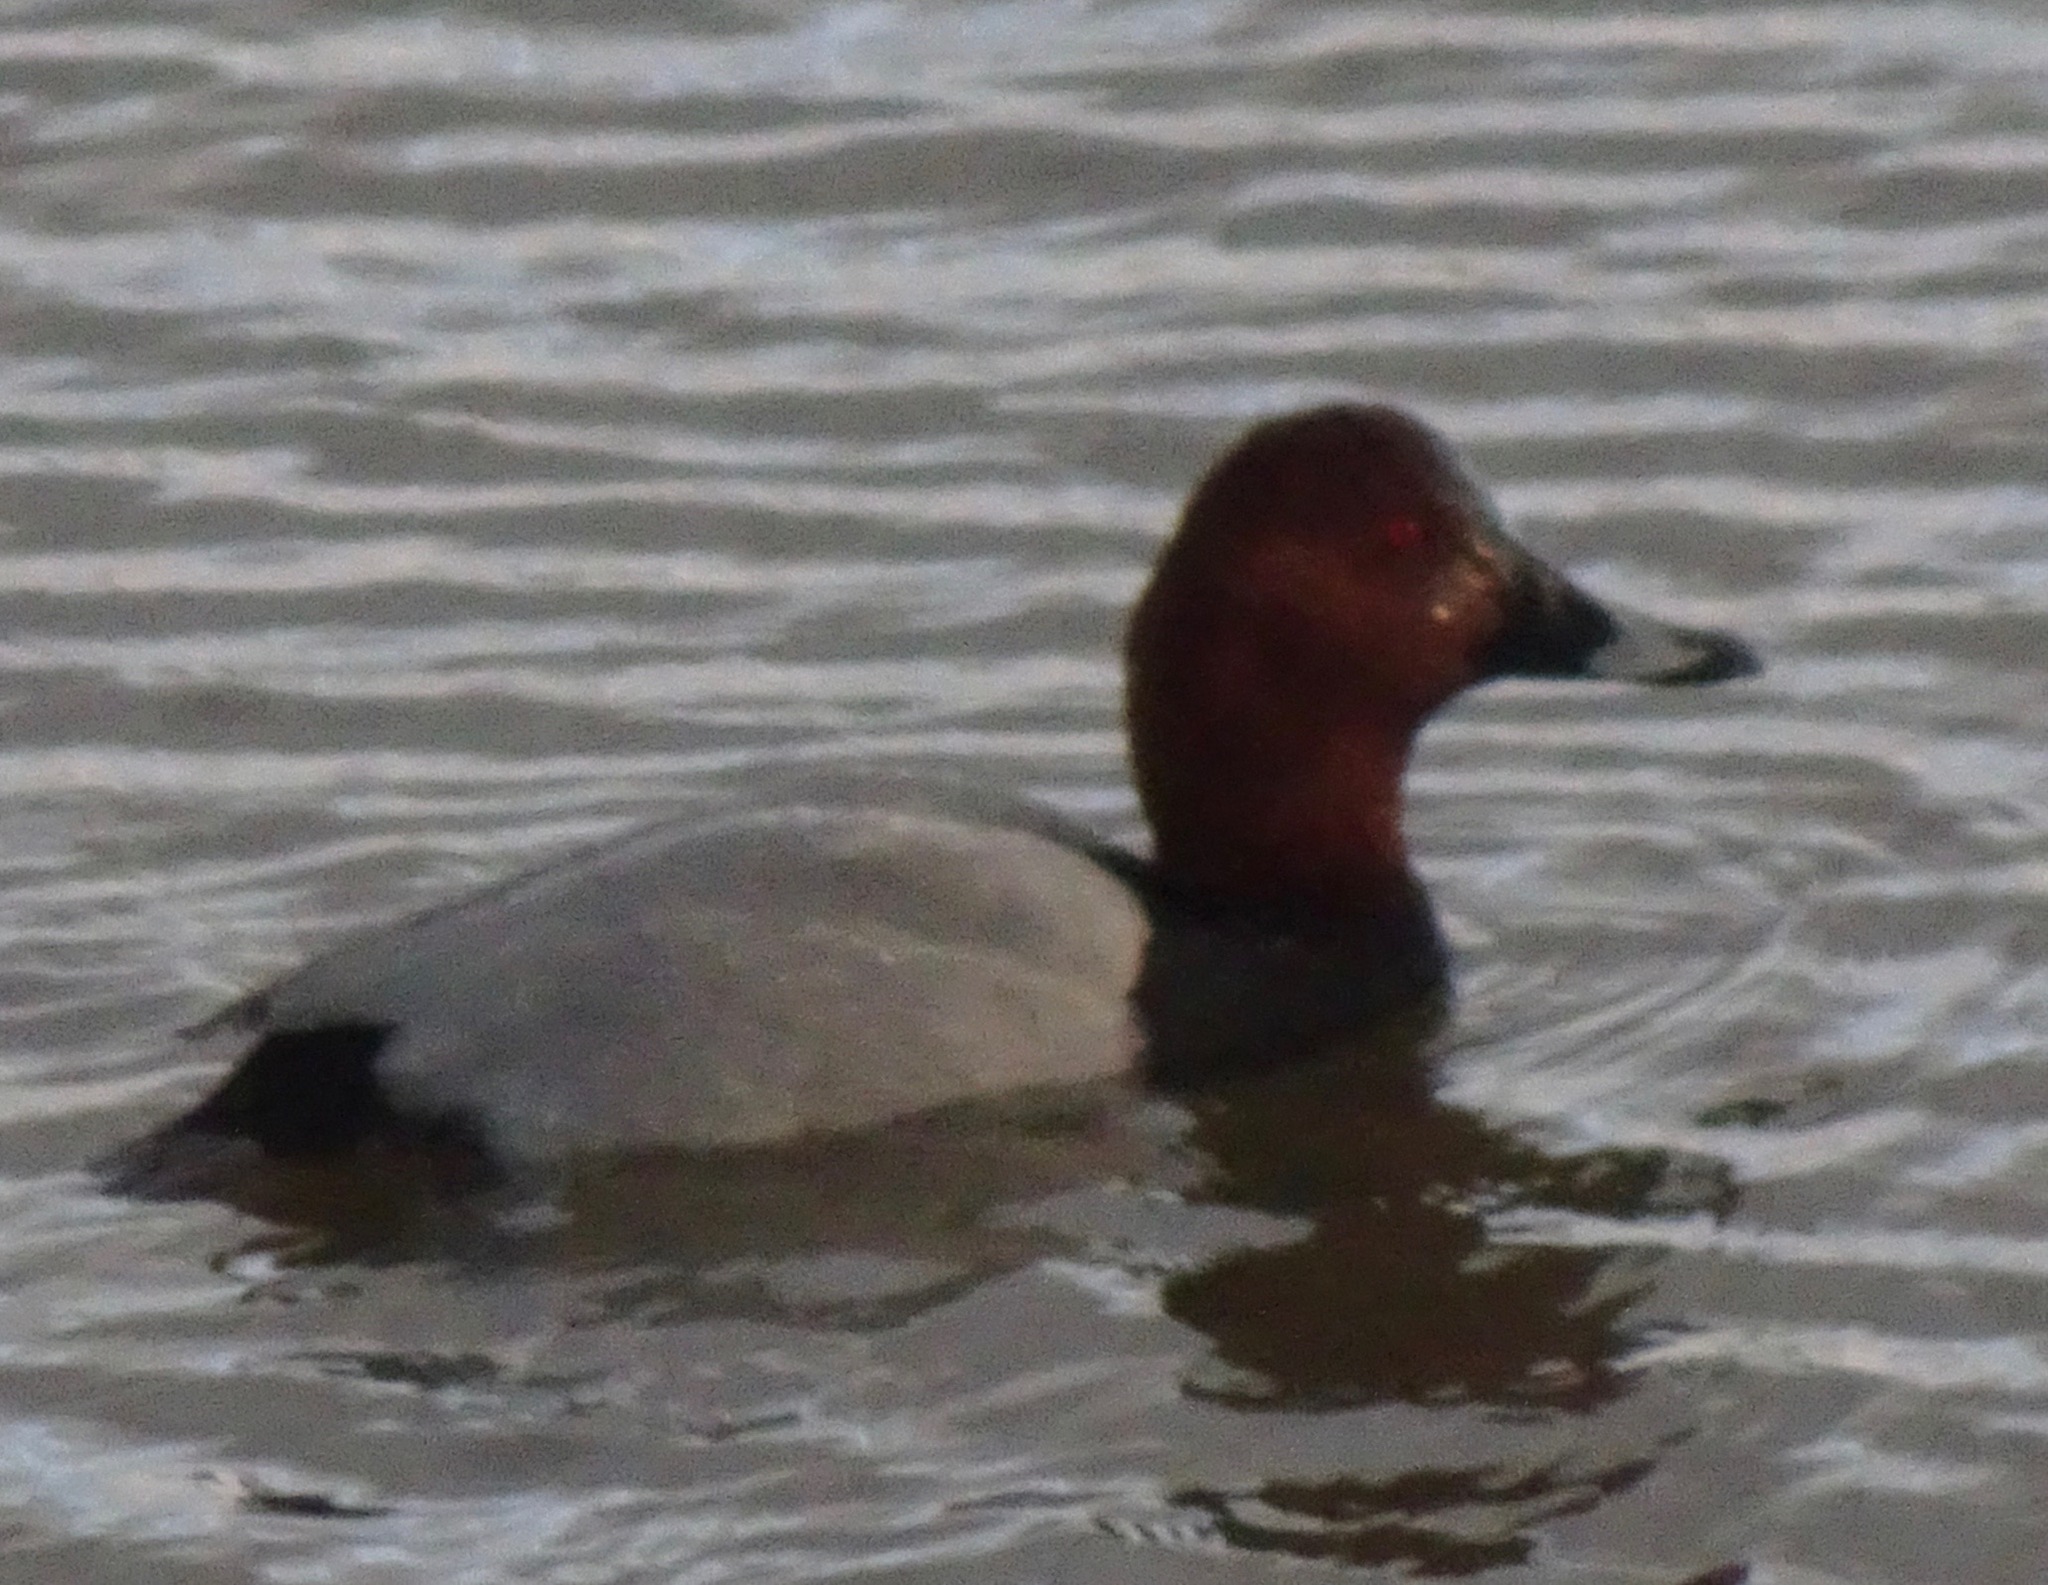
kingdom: Animalia
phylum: Chordata
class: Aves
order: Anseriformes
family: Anatidae
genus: Aythya
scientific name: Aythya ferina
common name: Common pochard
